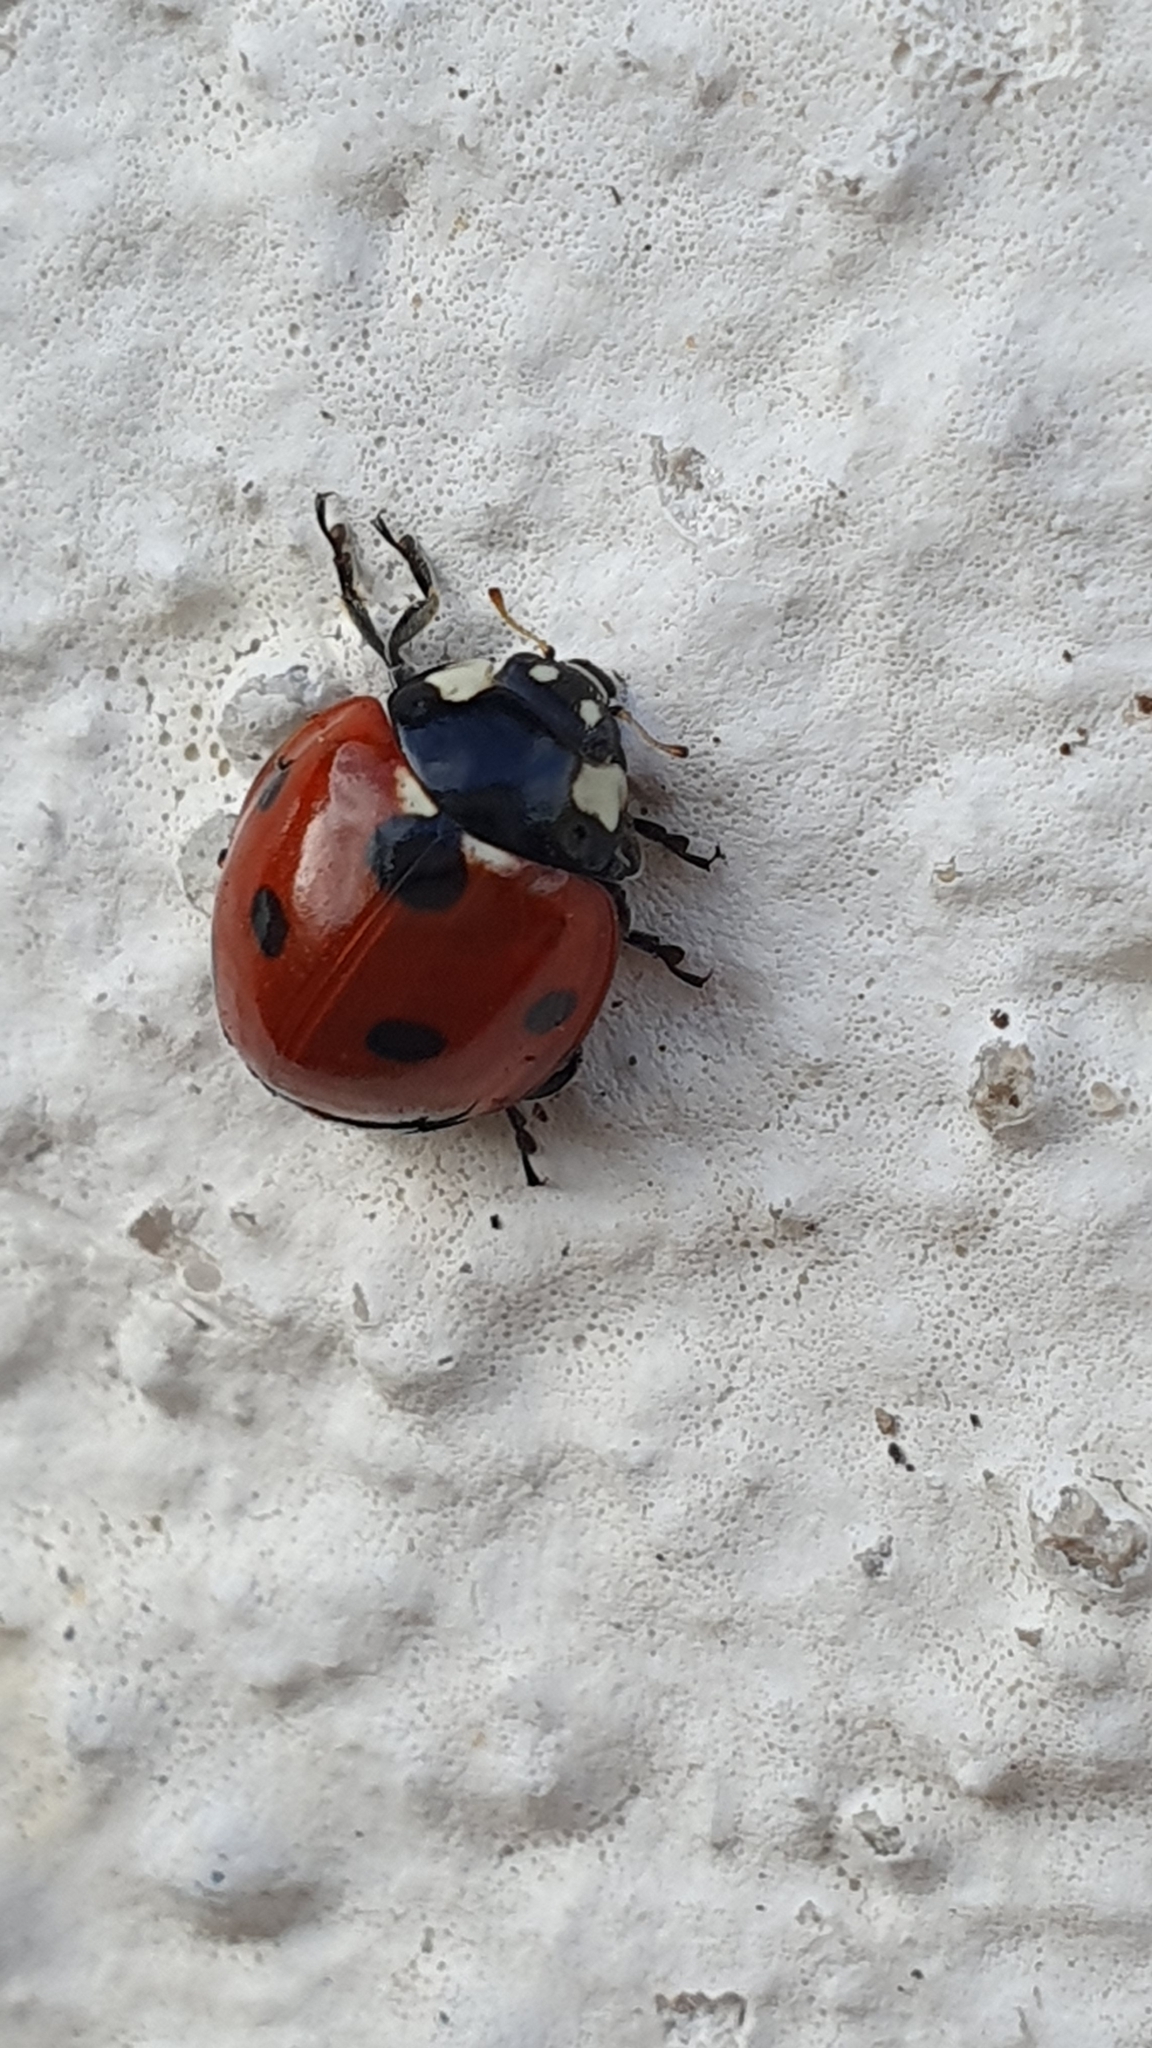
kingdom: Animalia
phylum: Arthropoda
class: Insecta
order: Coleoptera
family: Coccinellidae
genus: Coccinella
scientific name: Coccinella septempunctata
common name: Sevenspotted lady beetle
